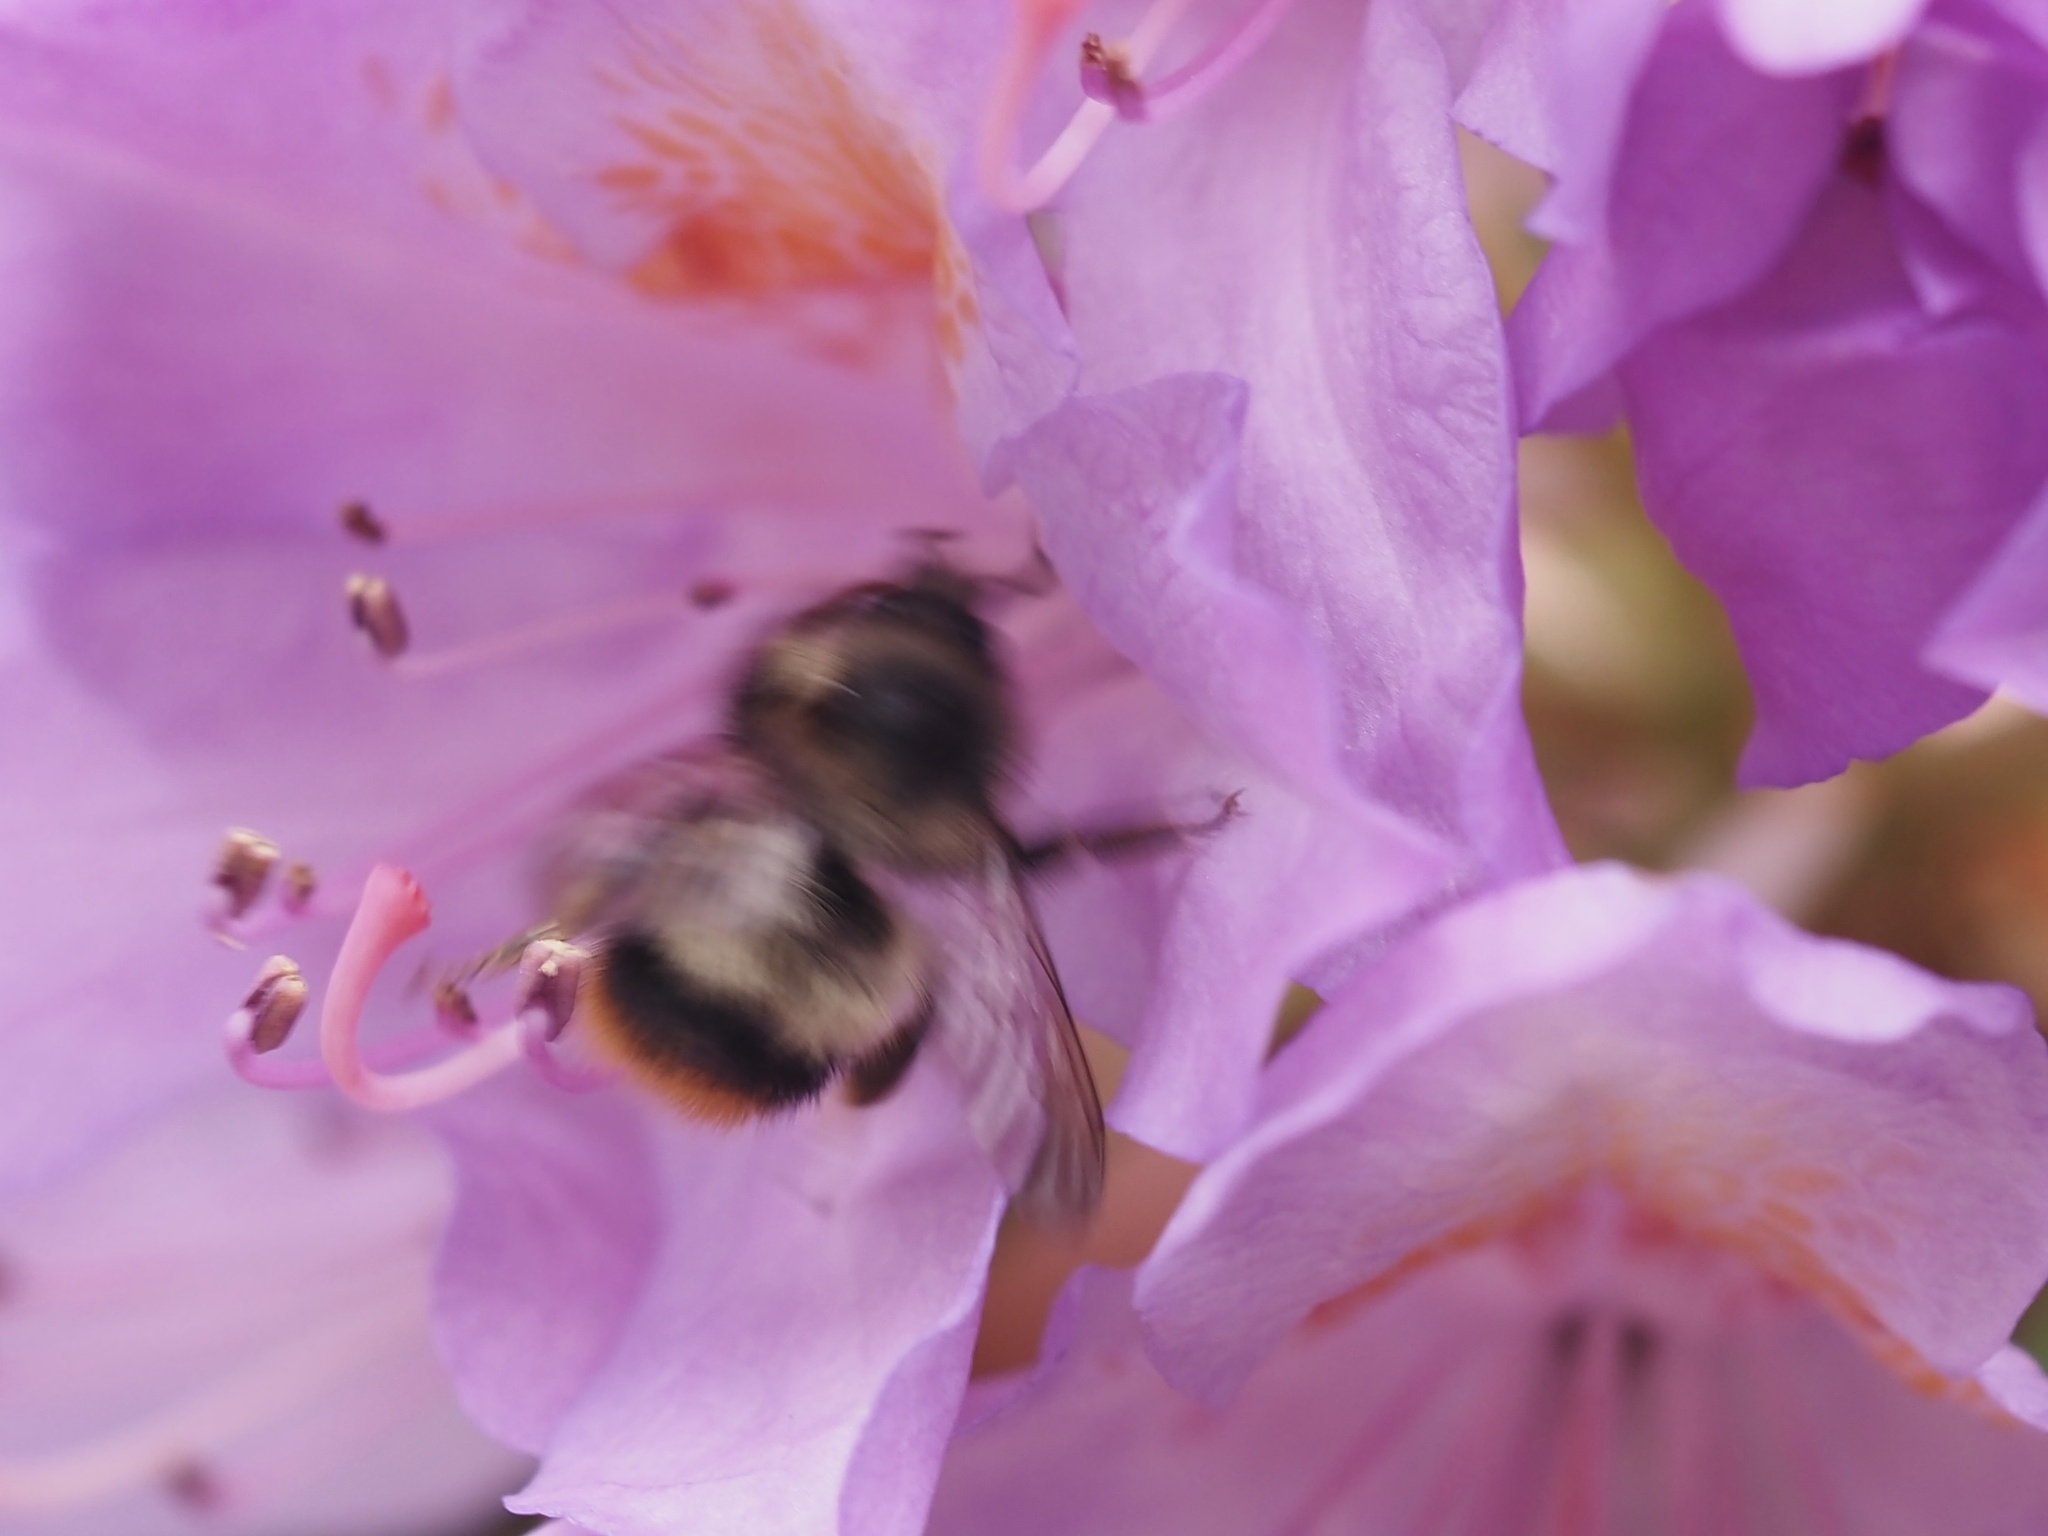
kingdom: Animalia
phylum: Arthropoda
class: Insecta
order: Hymenoptera
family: Apidae
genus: Bombus
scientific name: Bombus mixtus
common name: Fuzzy-horned bumble bee
